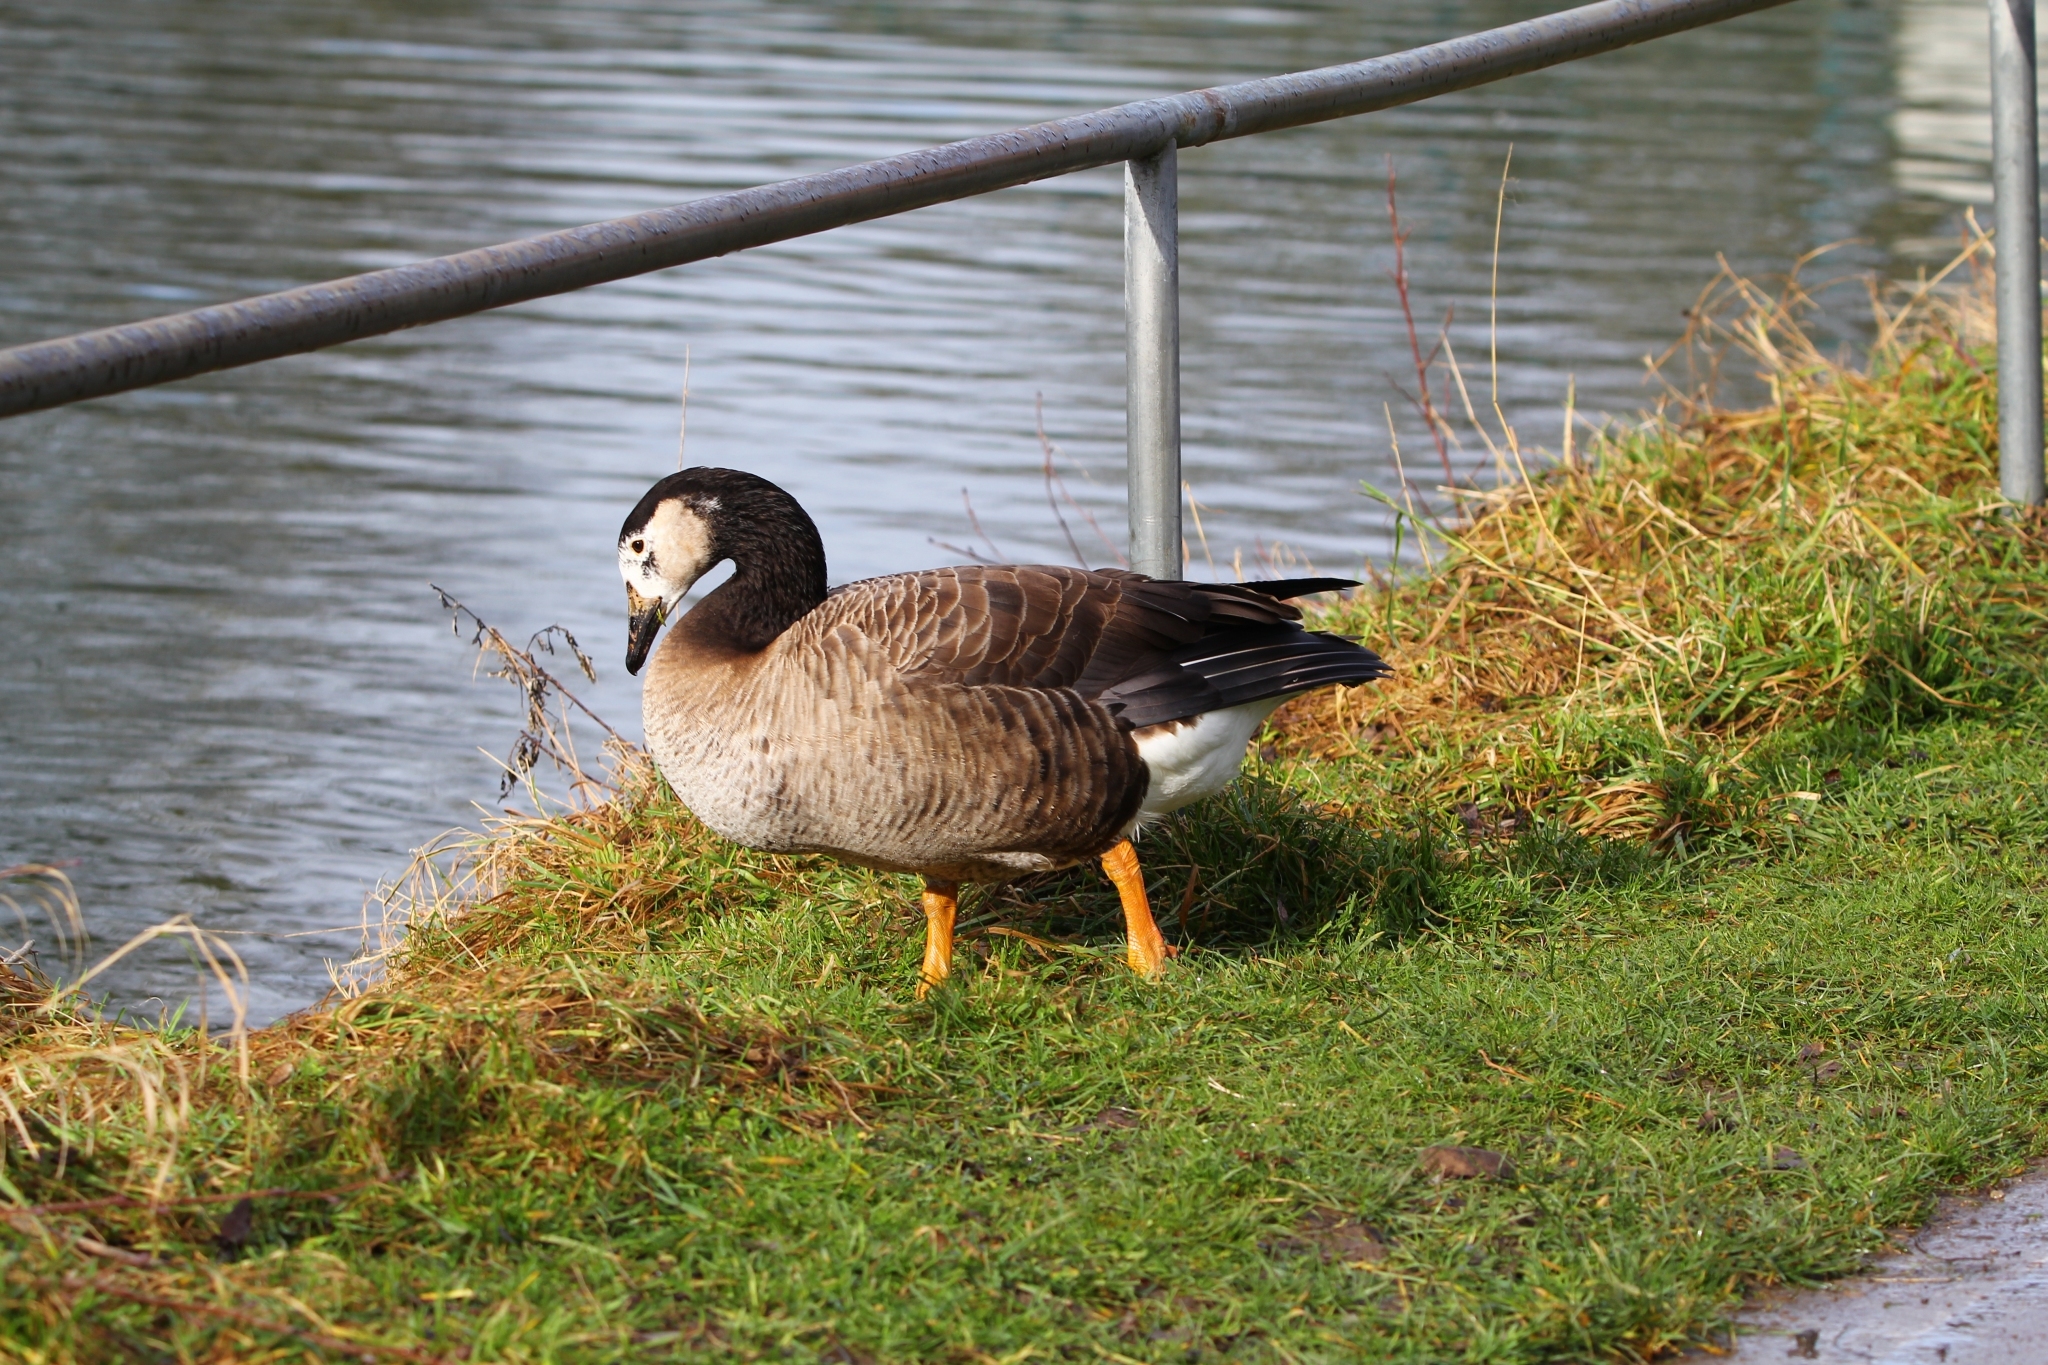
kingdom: Animalia
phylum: Chordata
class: Aves
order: Anseriformes
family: Anatidae
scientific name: Anatidae
